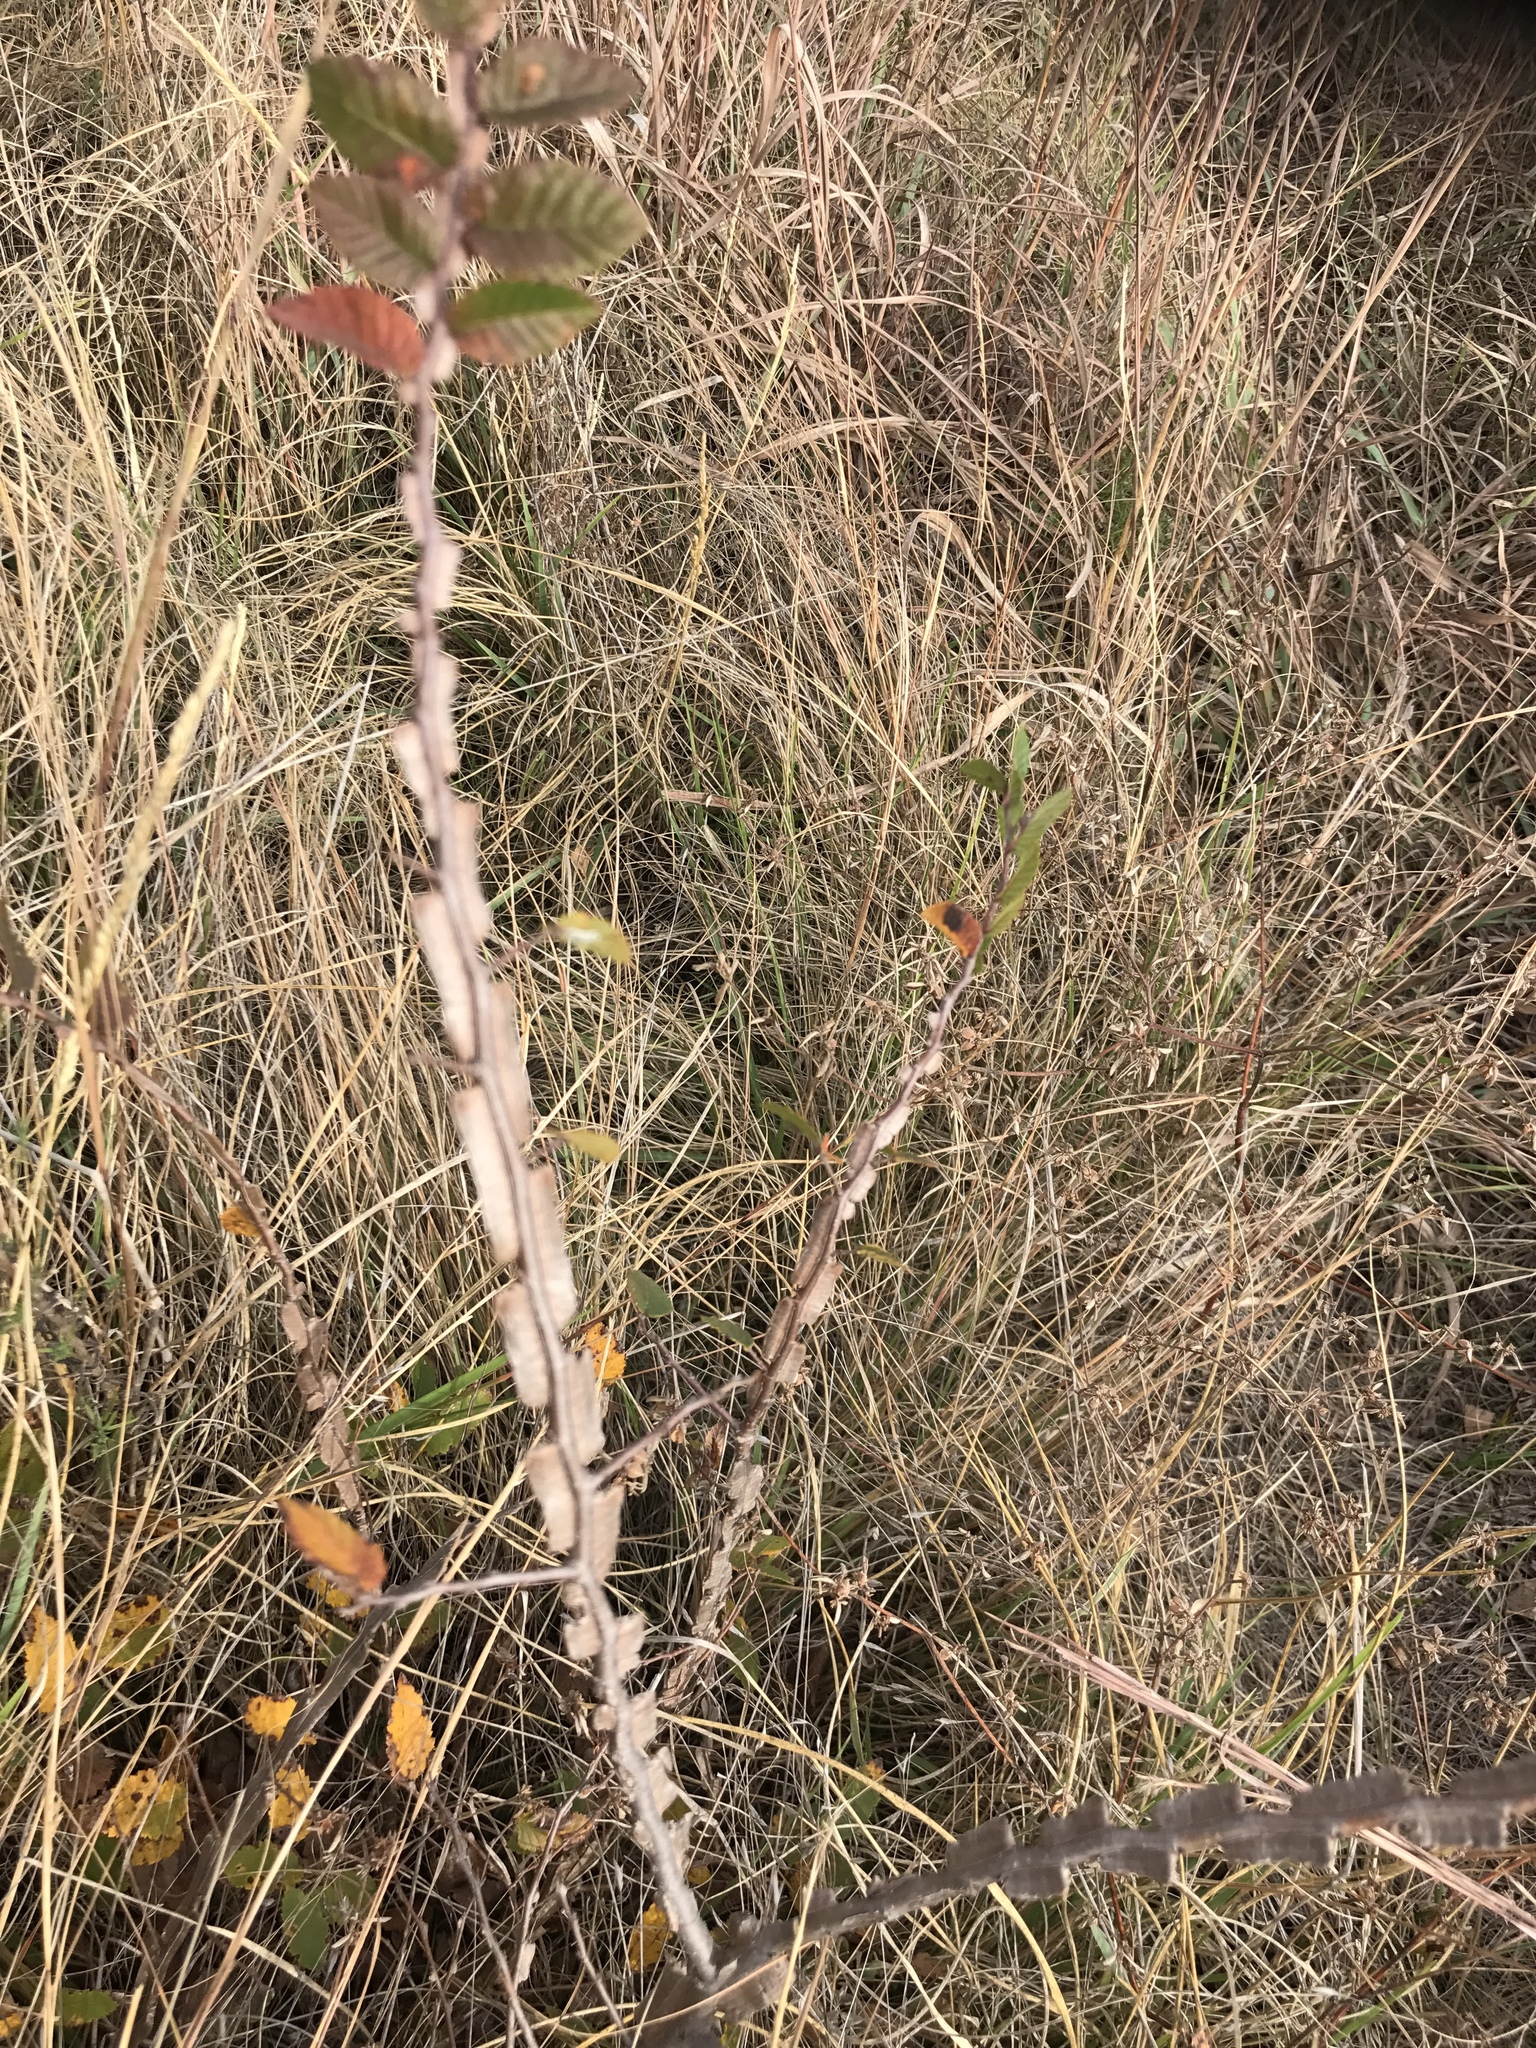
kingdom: Plantae
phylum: Tracheophyta
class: Magnoliopsida
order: Rosales
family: Ulmaceae
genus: Ulmus
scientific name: Ulmus crassifolia
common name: Basket elm
